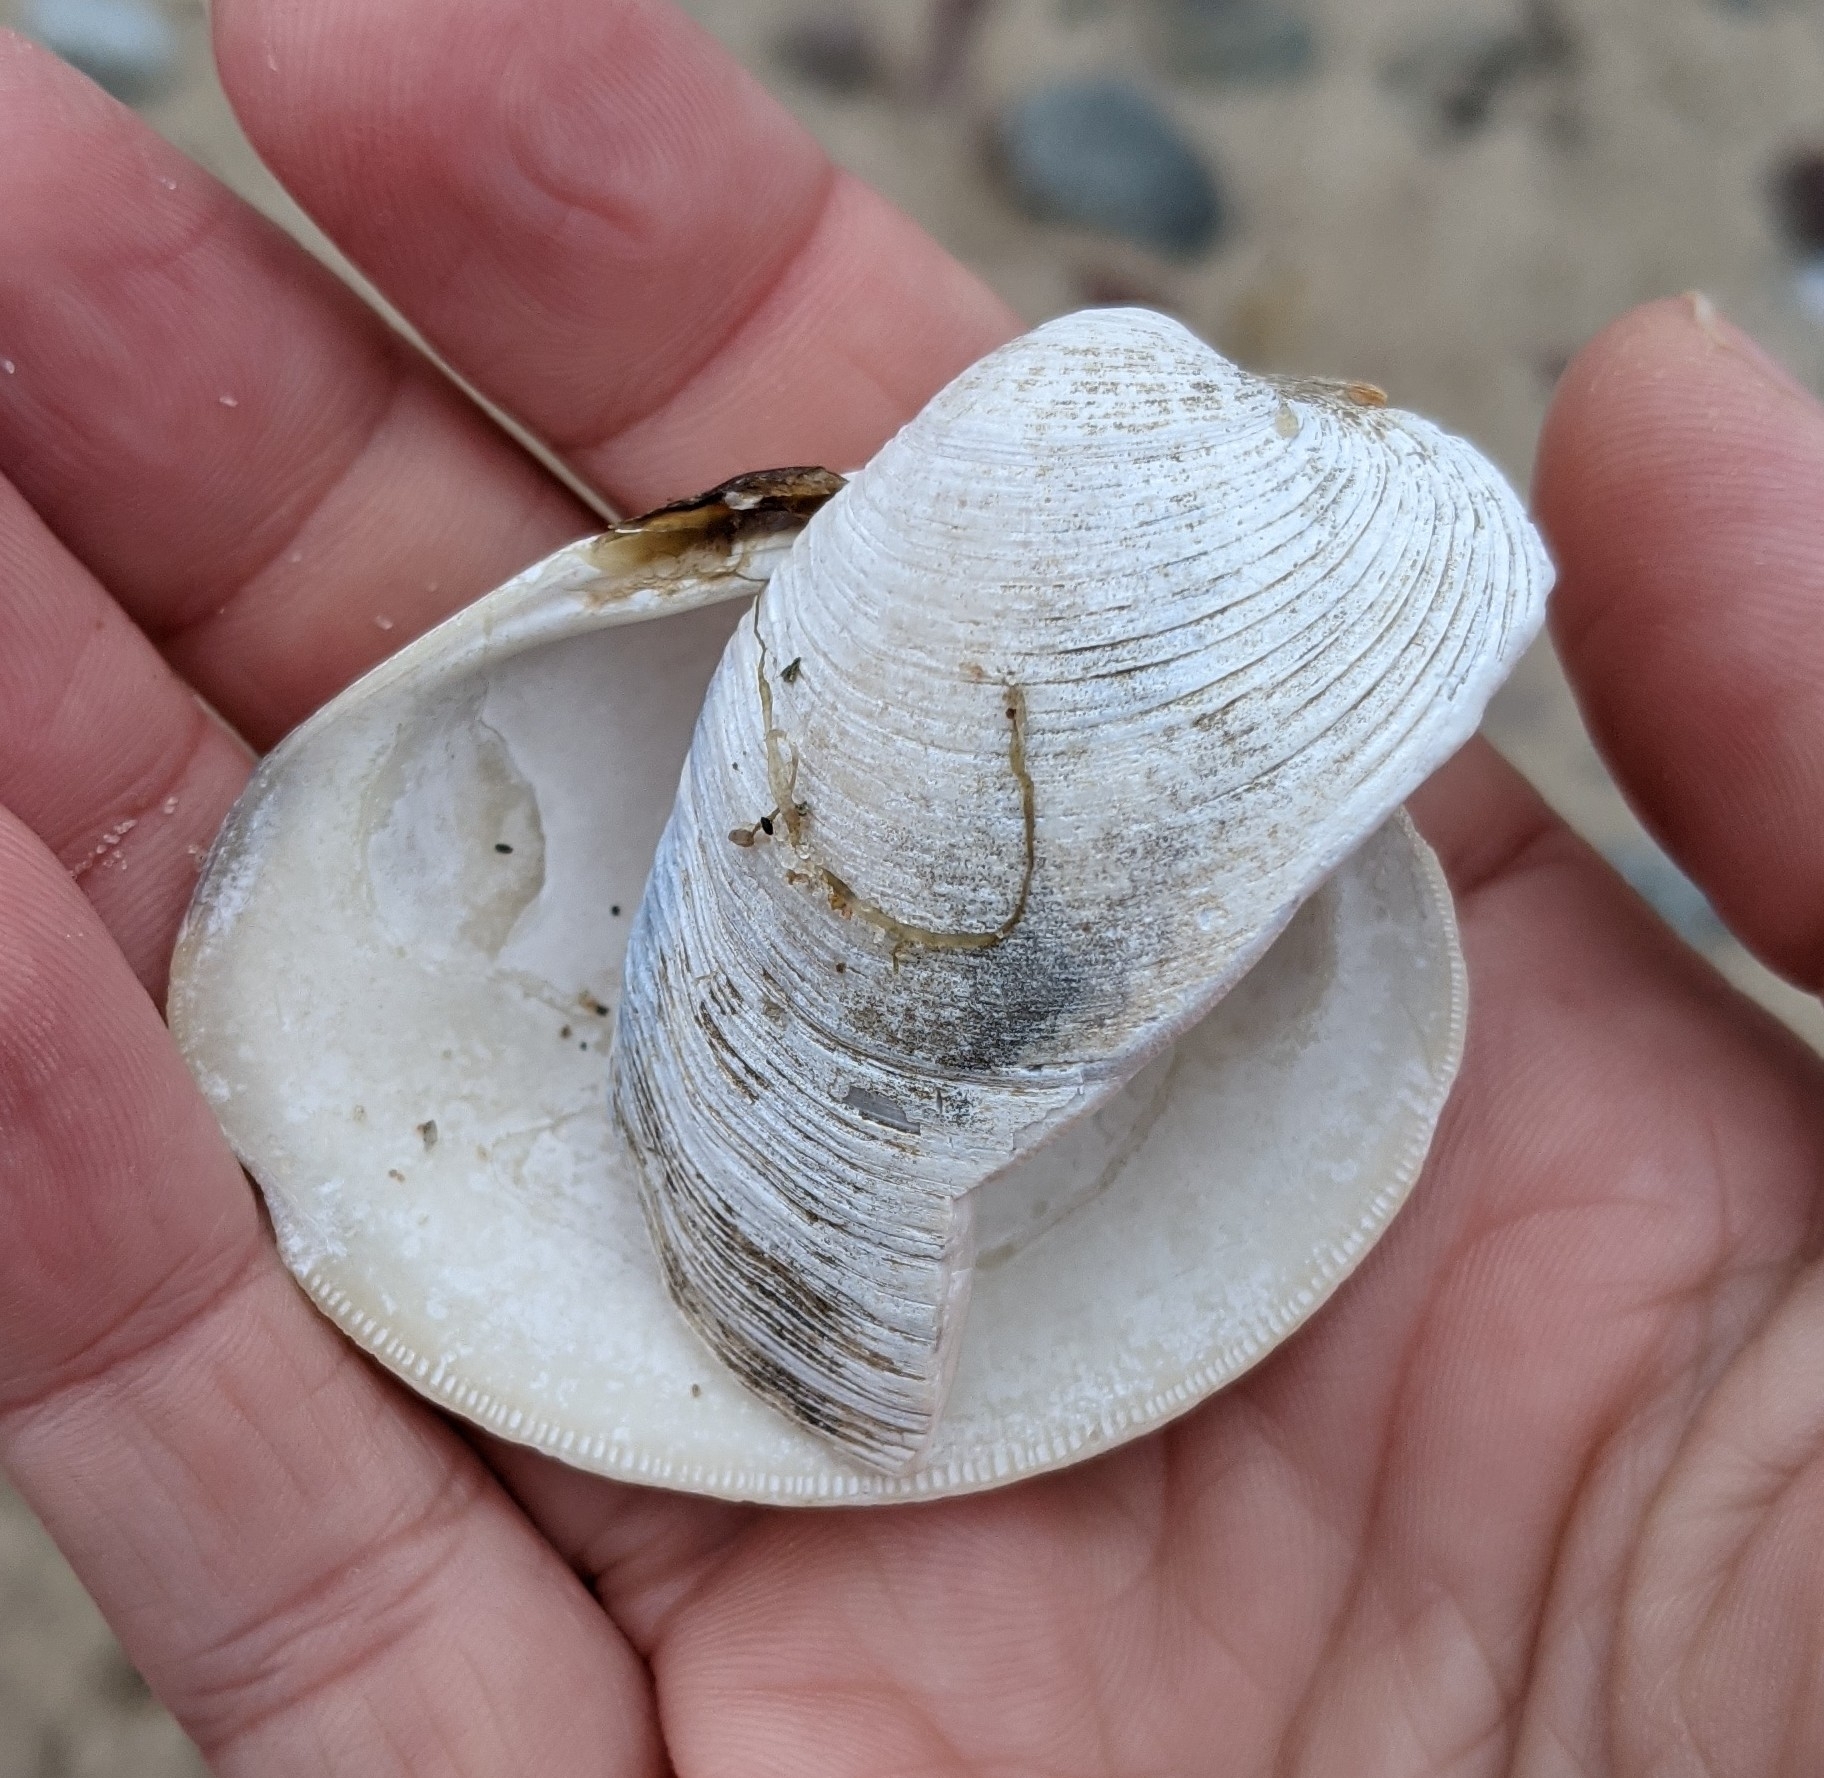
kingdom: Animalia
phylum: Mollusca
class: Bivalvia
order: Venerida
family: Veneridae
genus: Mercenaria
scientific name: Mercenaria mercenaria
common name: American hard-shelled clam
